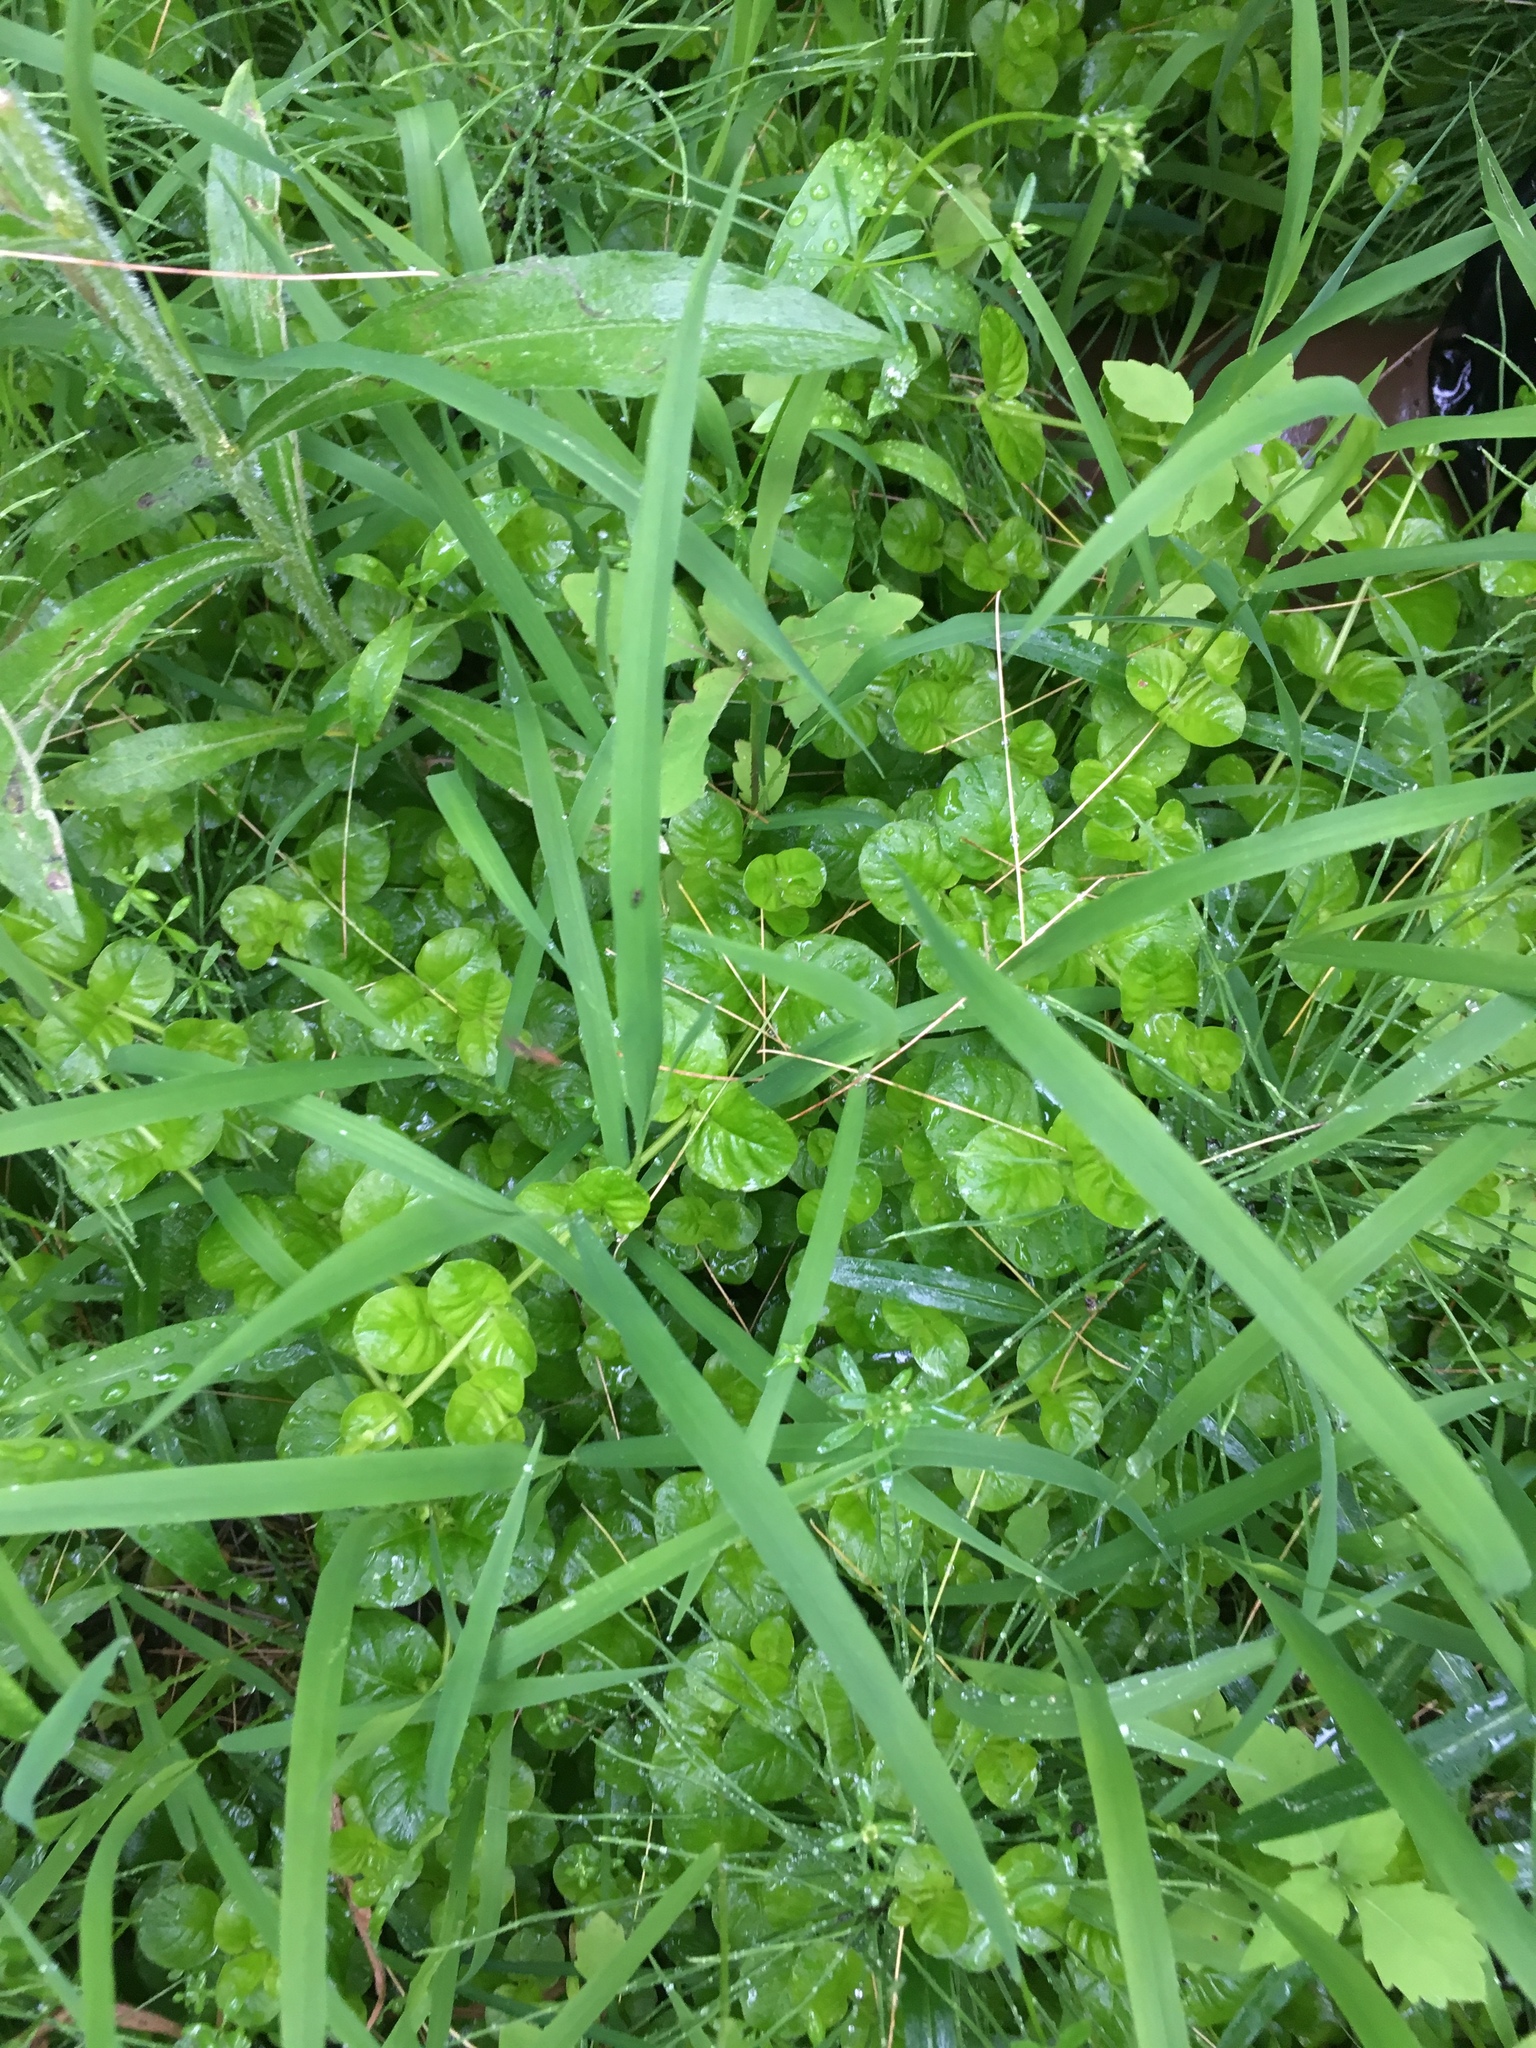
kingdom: Plantae
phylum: Tracheophyta
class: Magnoliopsida
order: Ericales
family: Primulaceae
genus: Lysimachia
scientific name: Lysimachia nummularia
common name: Moneywort
